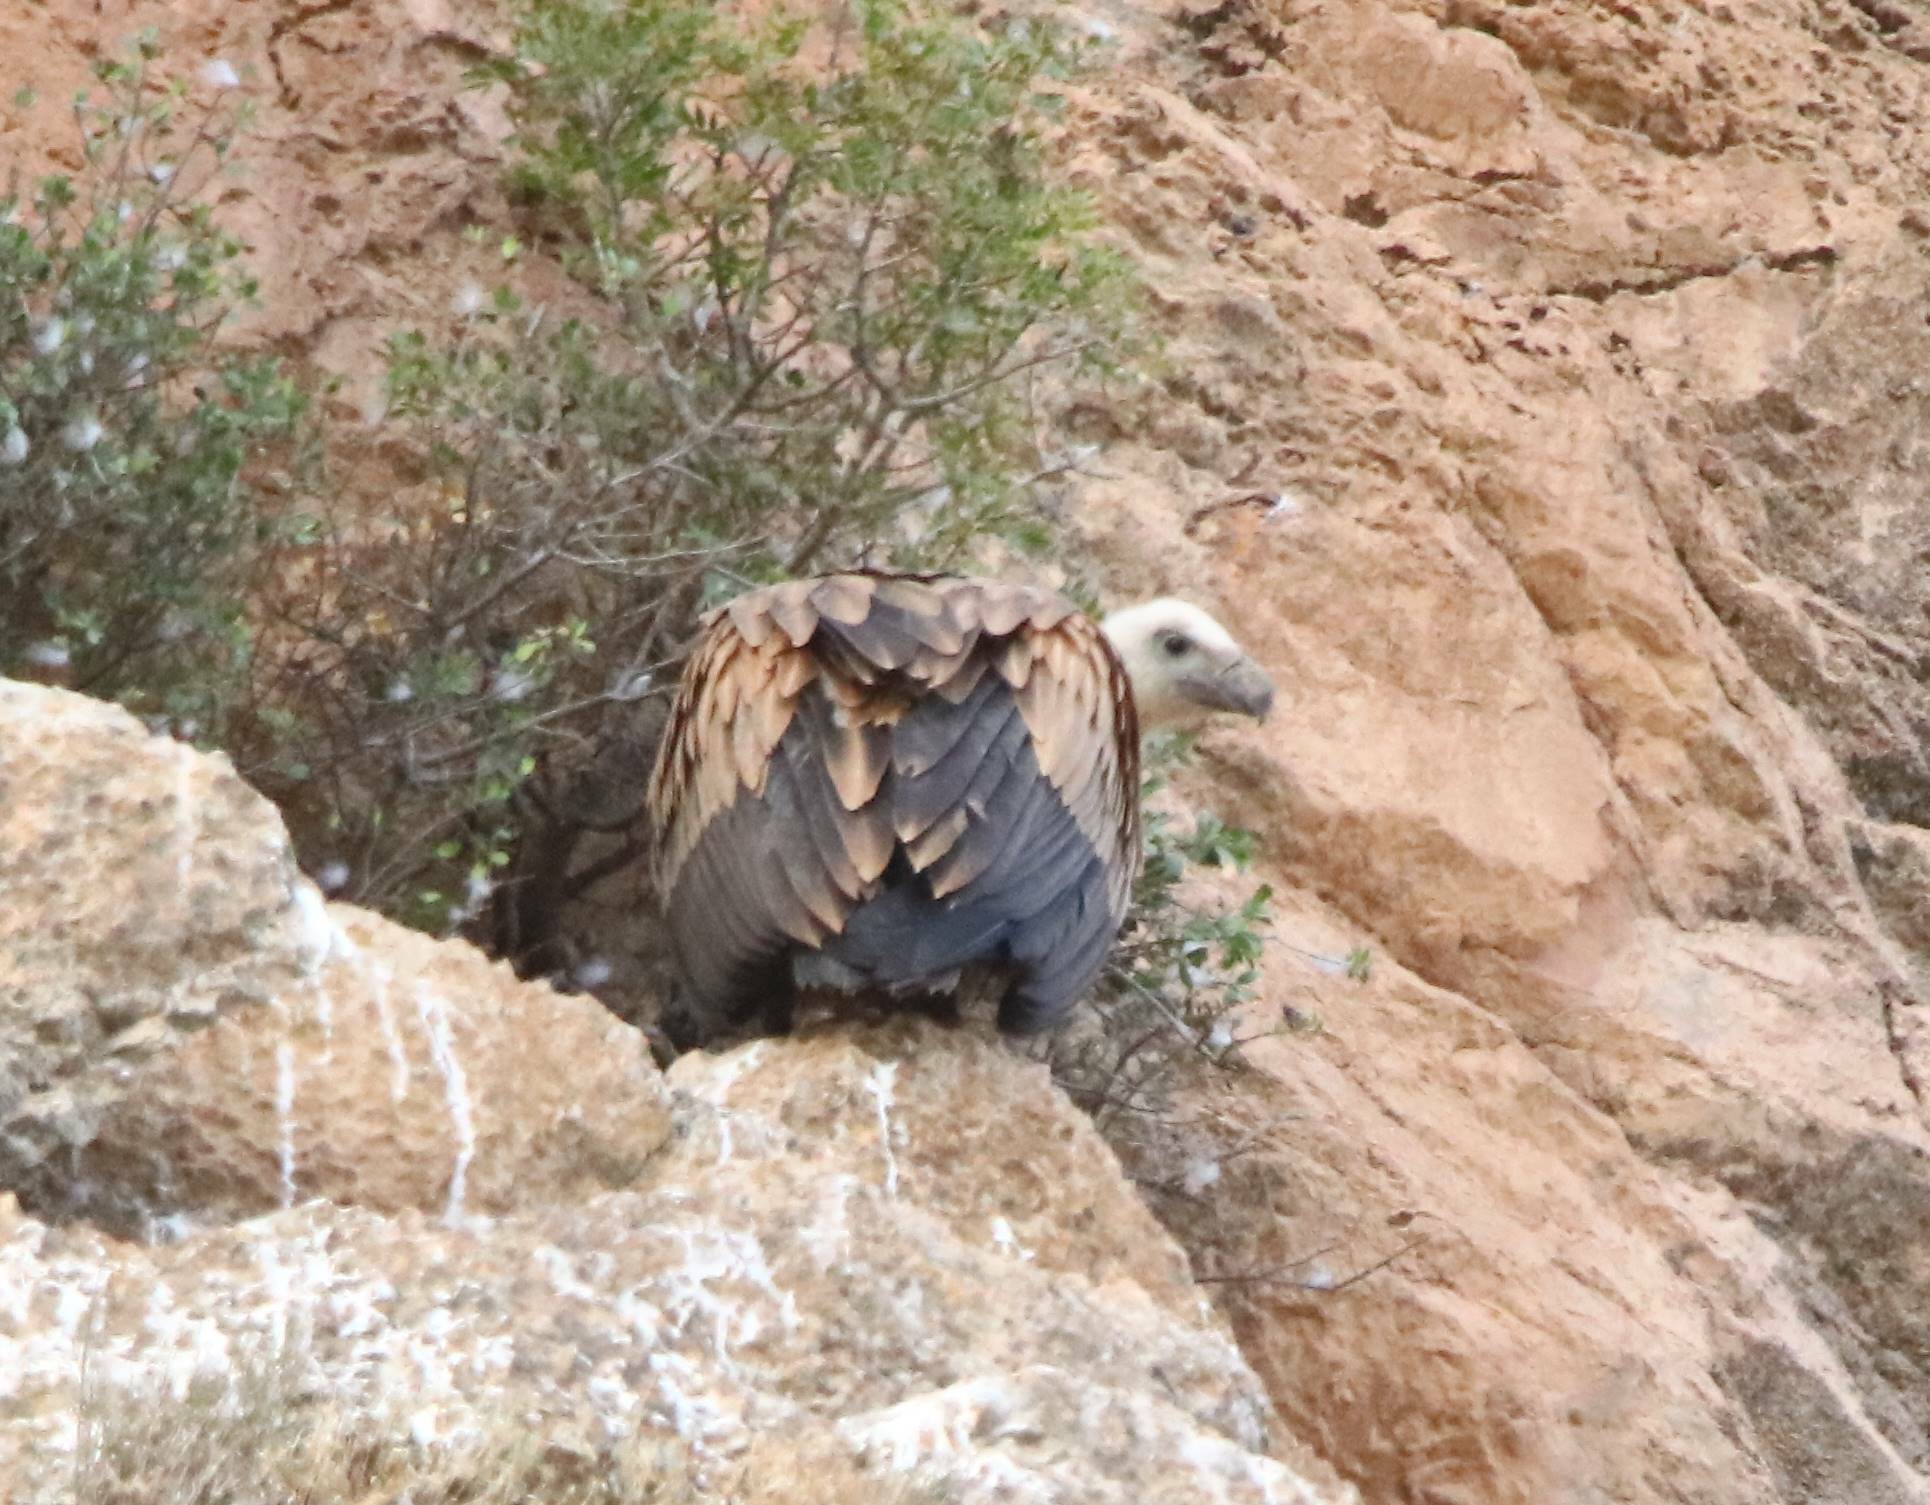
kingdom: Animalia
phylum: Chordata
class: Aves
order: Accipitriformes
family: Accipitridae
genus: Gyps
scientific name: Gyps fulvus
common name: Griffon vulture
